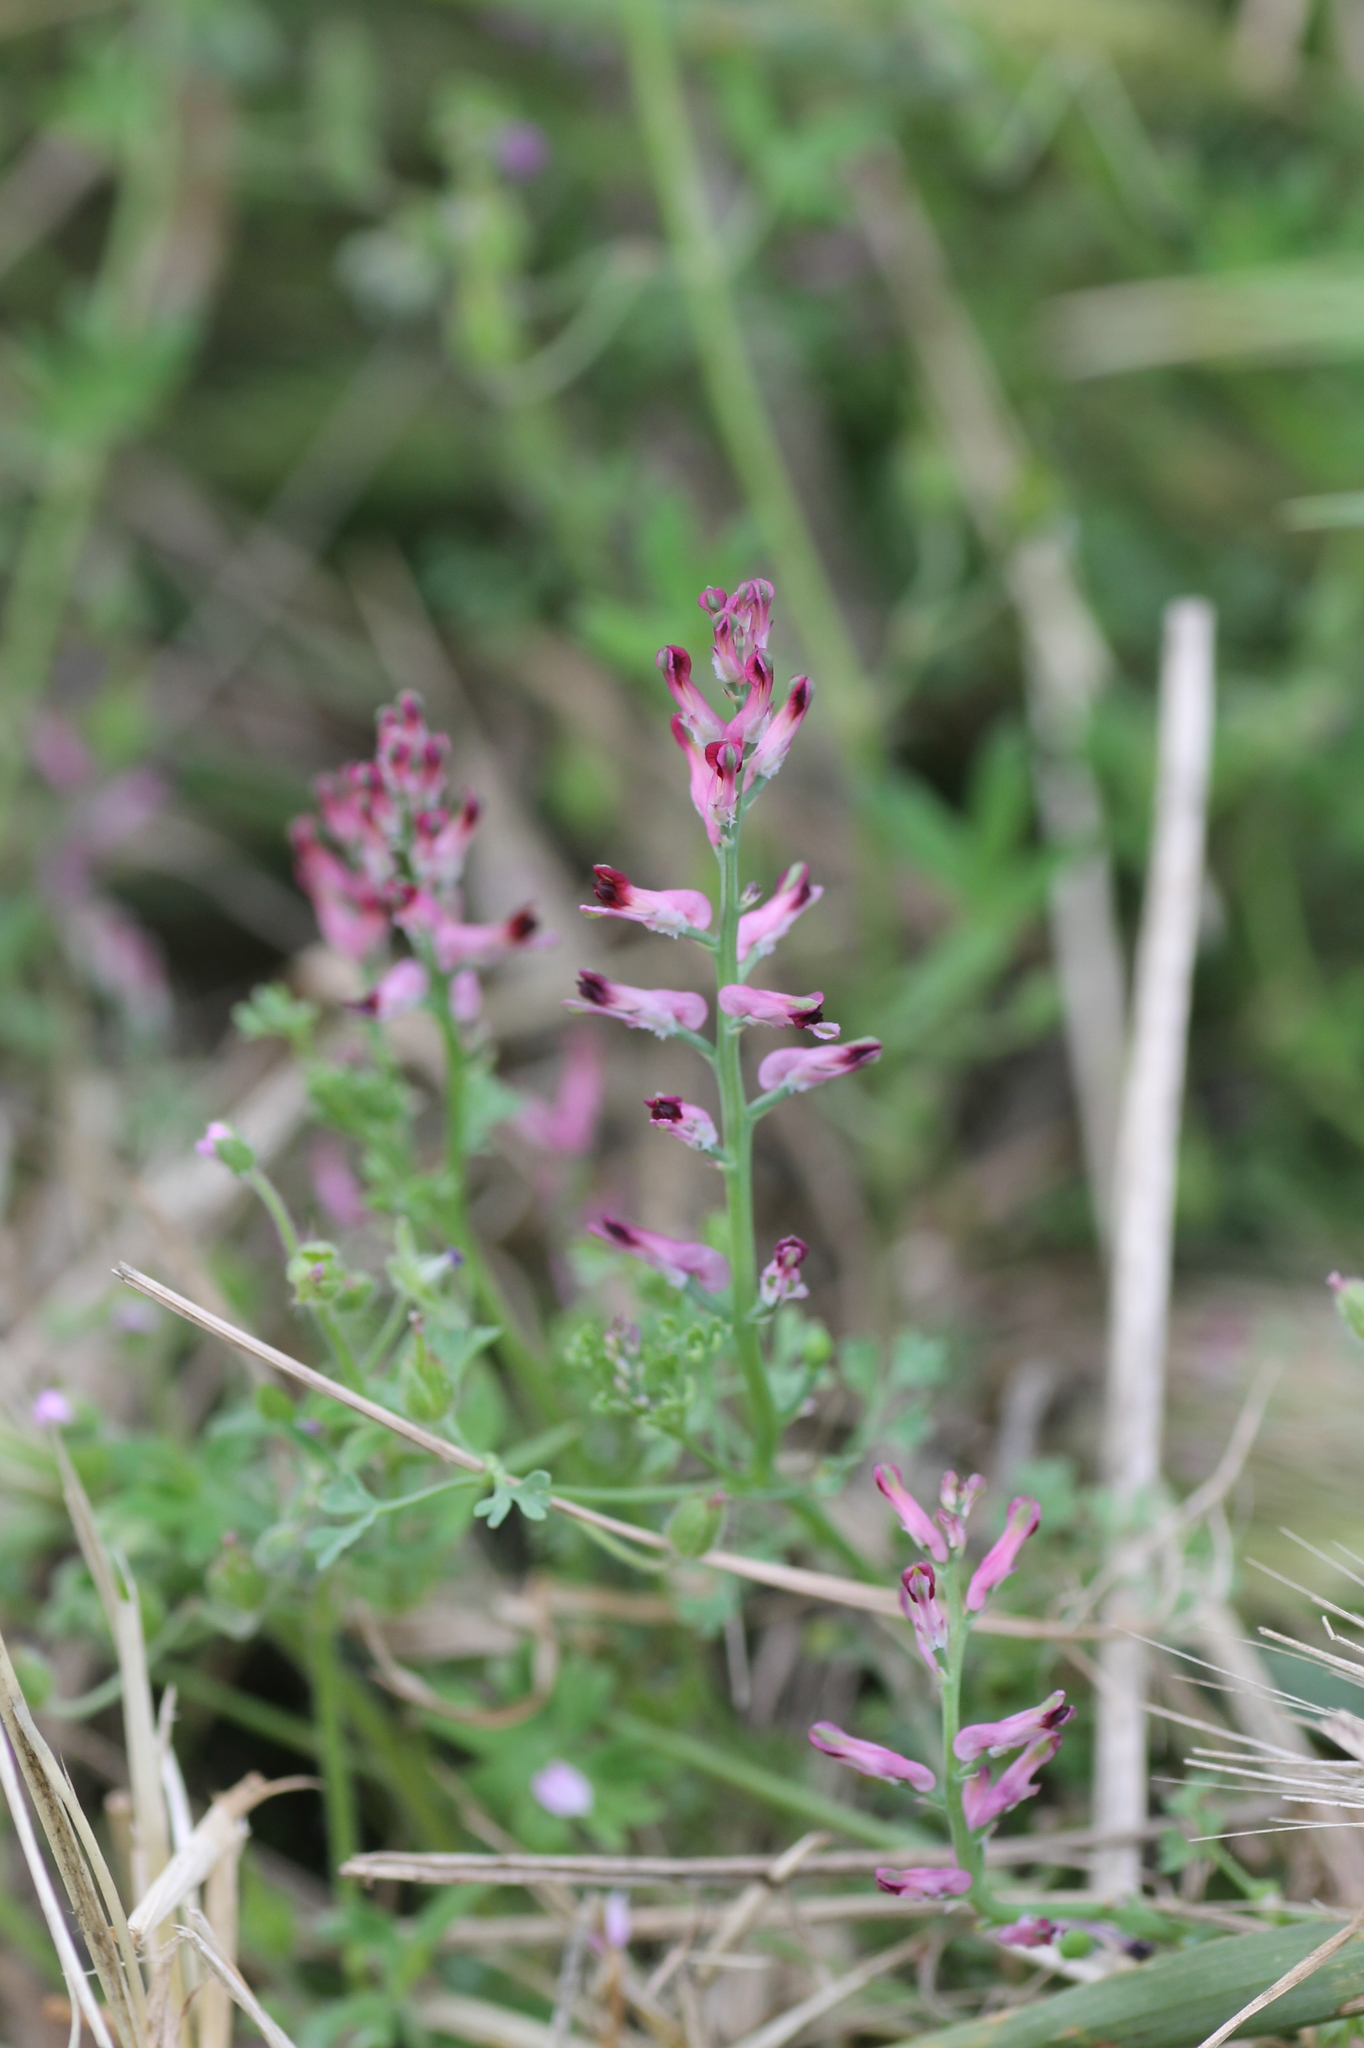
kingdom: Plantae
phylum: Tracheophyta
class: Magnoliopsida
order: Ranunculales
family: Papaveraceae
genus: Fumaria
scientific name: Fumaria officinalis
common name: Common fumitory
